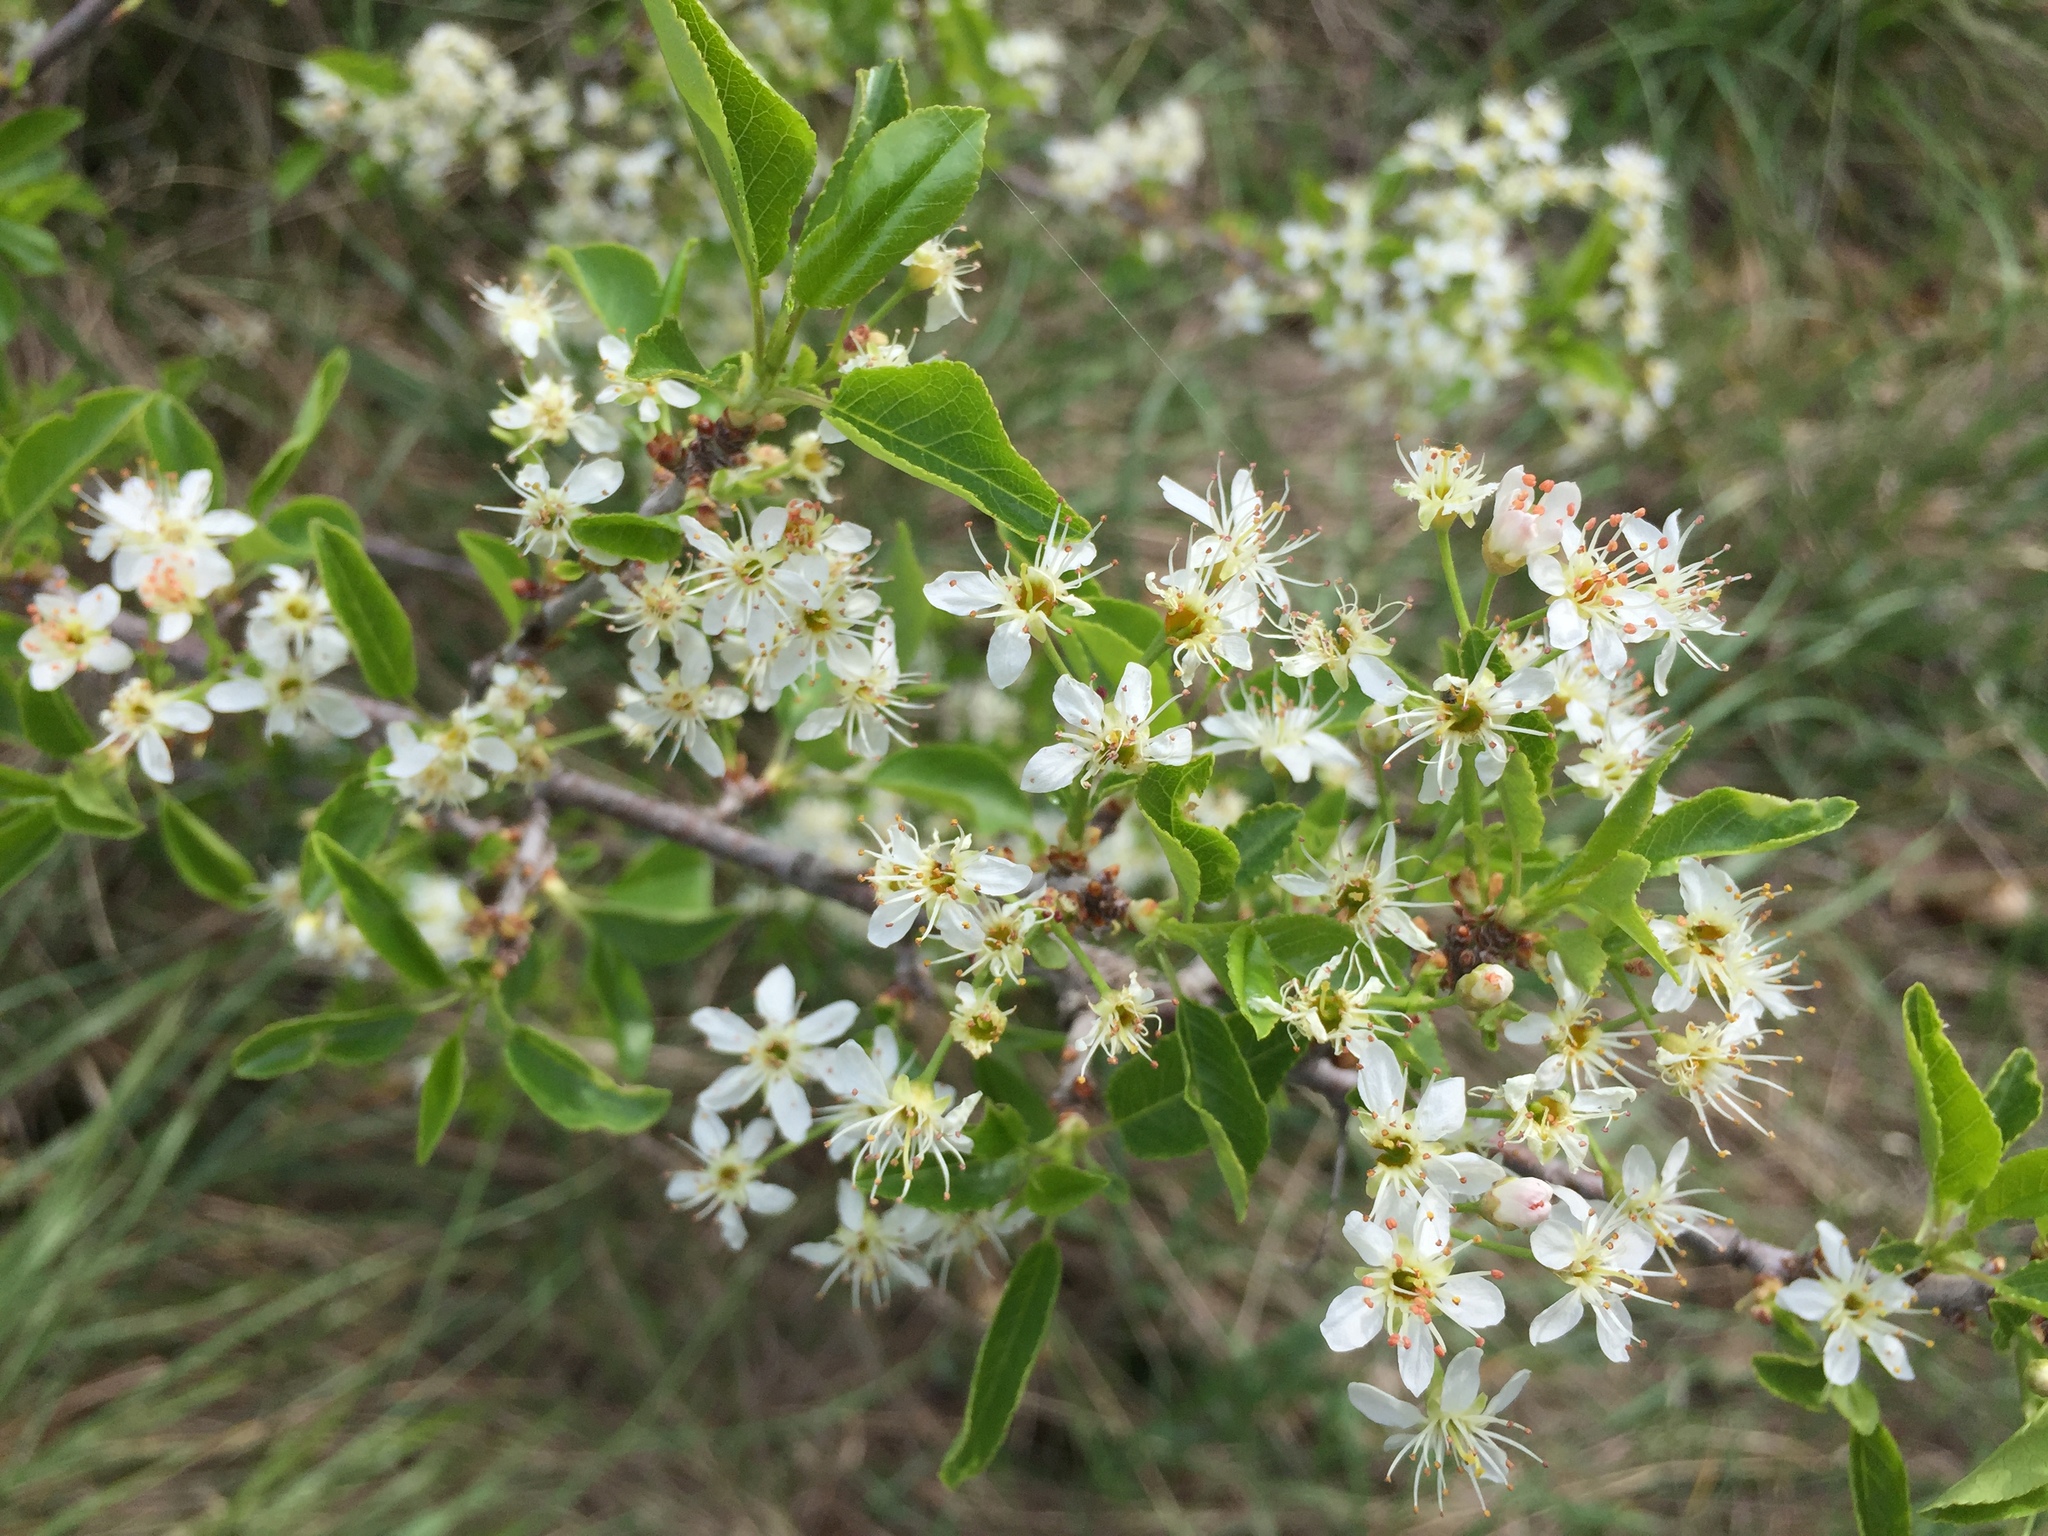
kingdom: Plantae
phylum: Tracheophyta
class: Magnoliopsida
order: Rosales
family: Rosaceae
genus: Prunus
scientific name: Prunus mahaleb
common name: Mahaleb cherry
